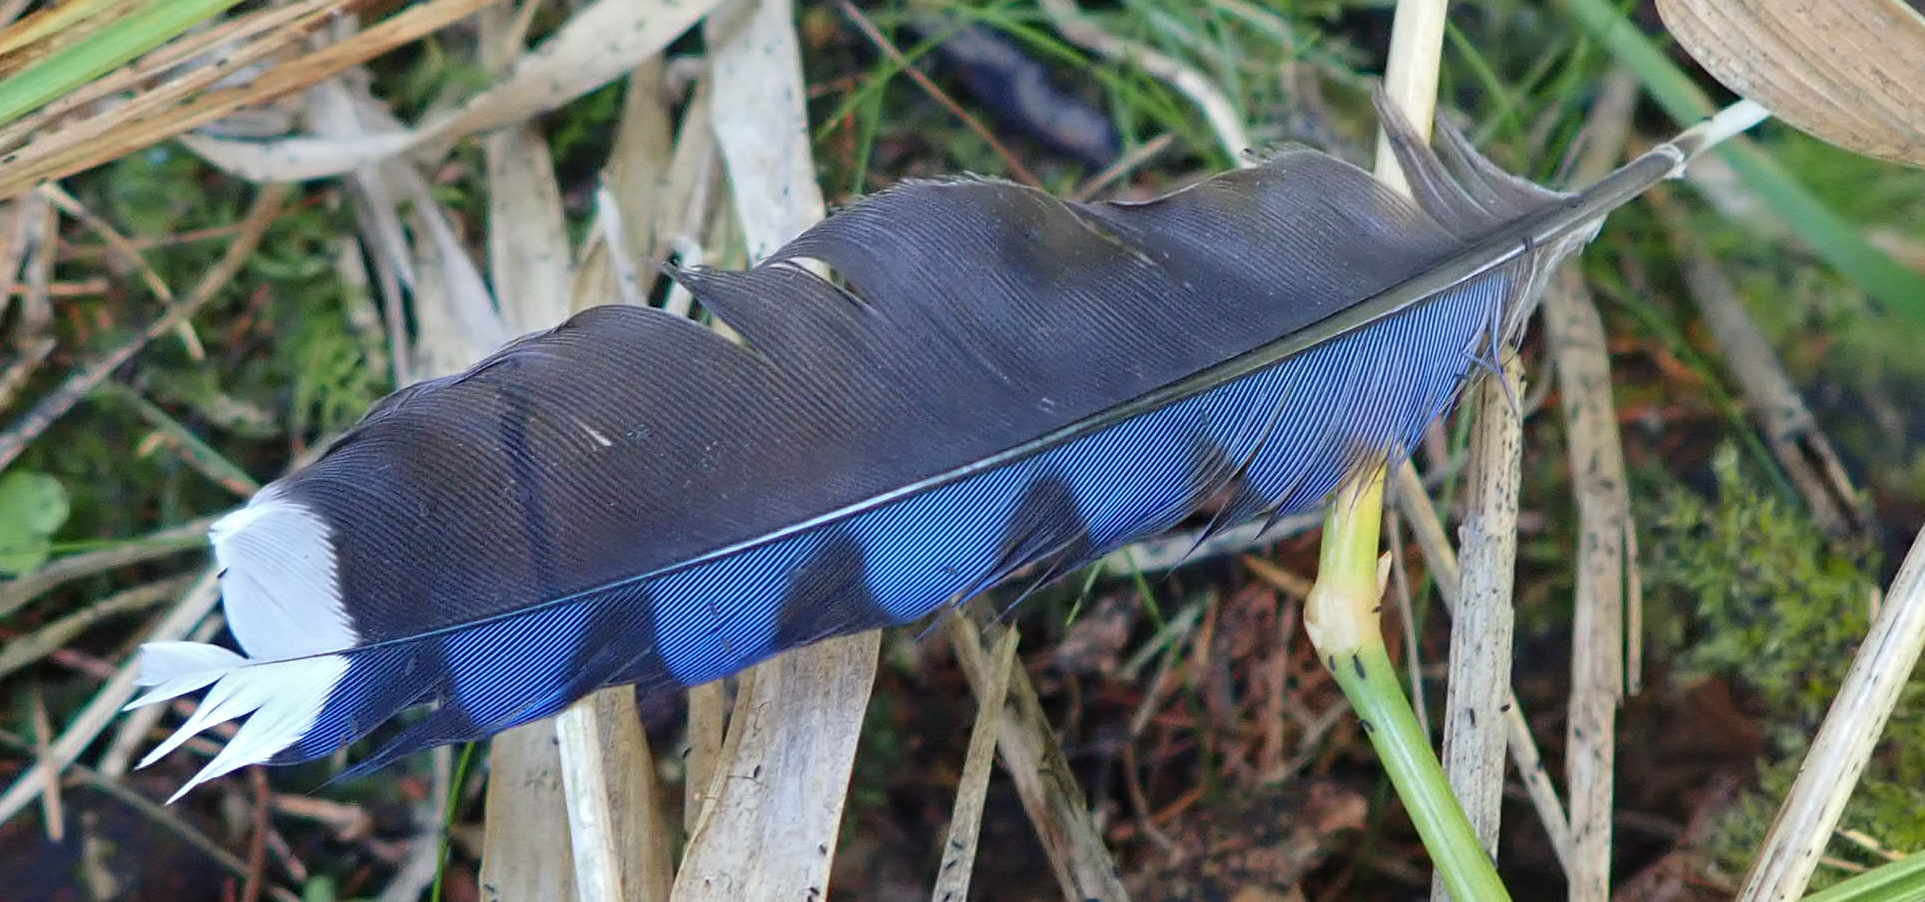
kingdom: Animalia
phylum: Chordata
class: Aves
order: Passeriformes
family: Corvidae
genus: Cyanocitta
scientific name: Cyanocitta cristata
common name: Blue jay
